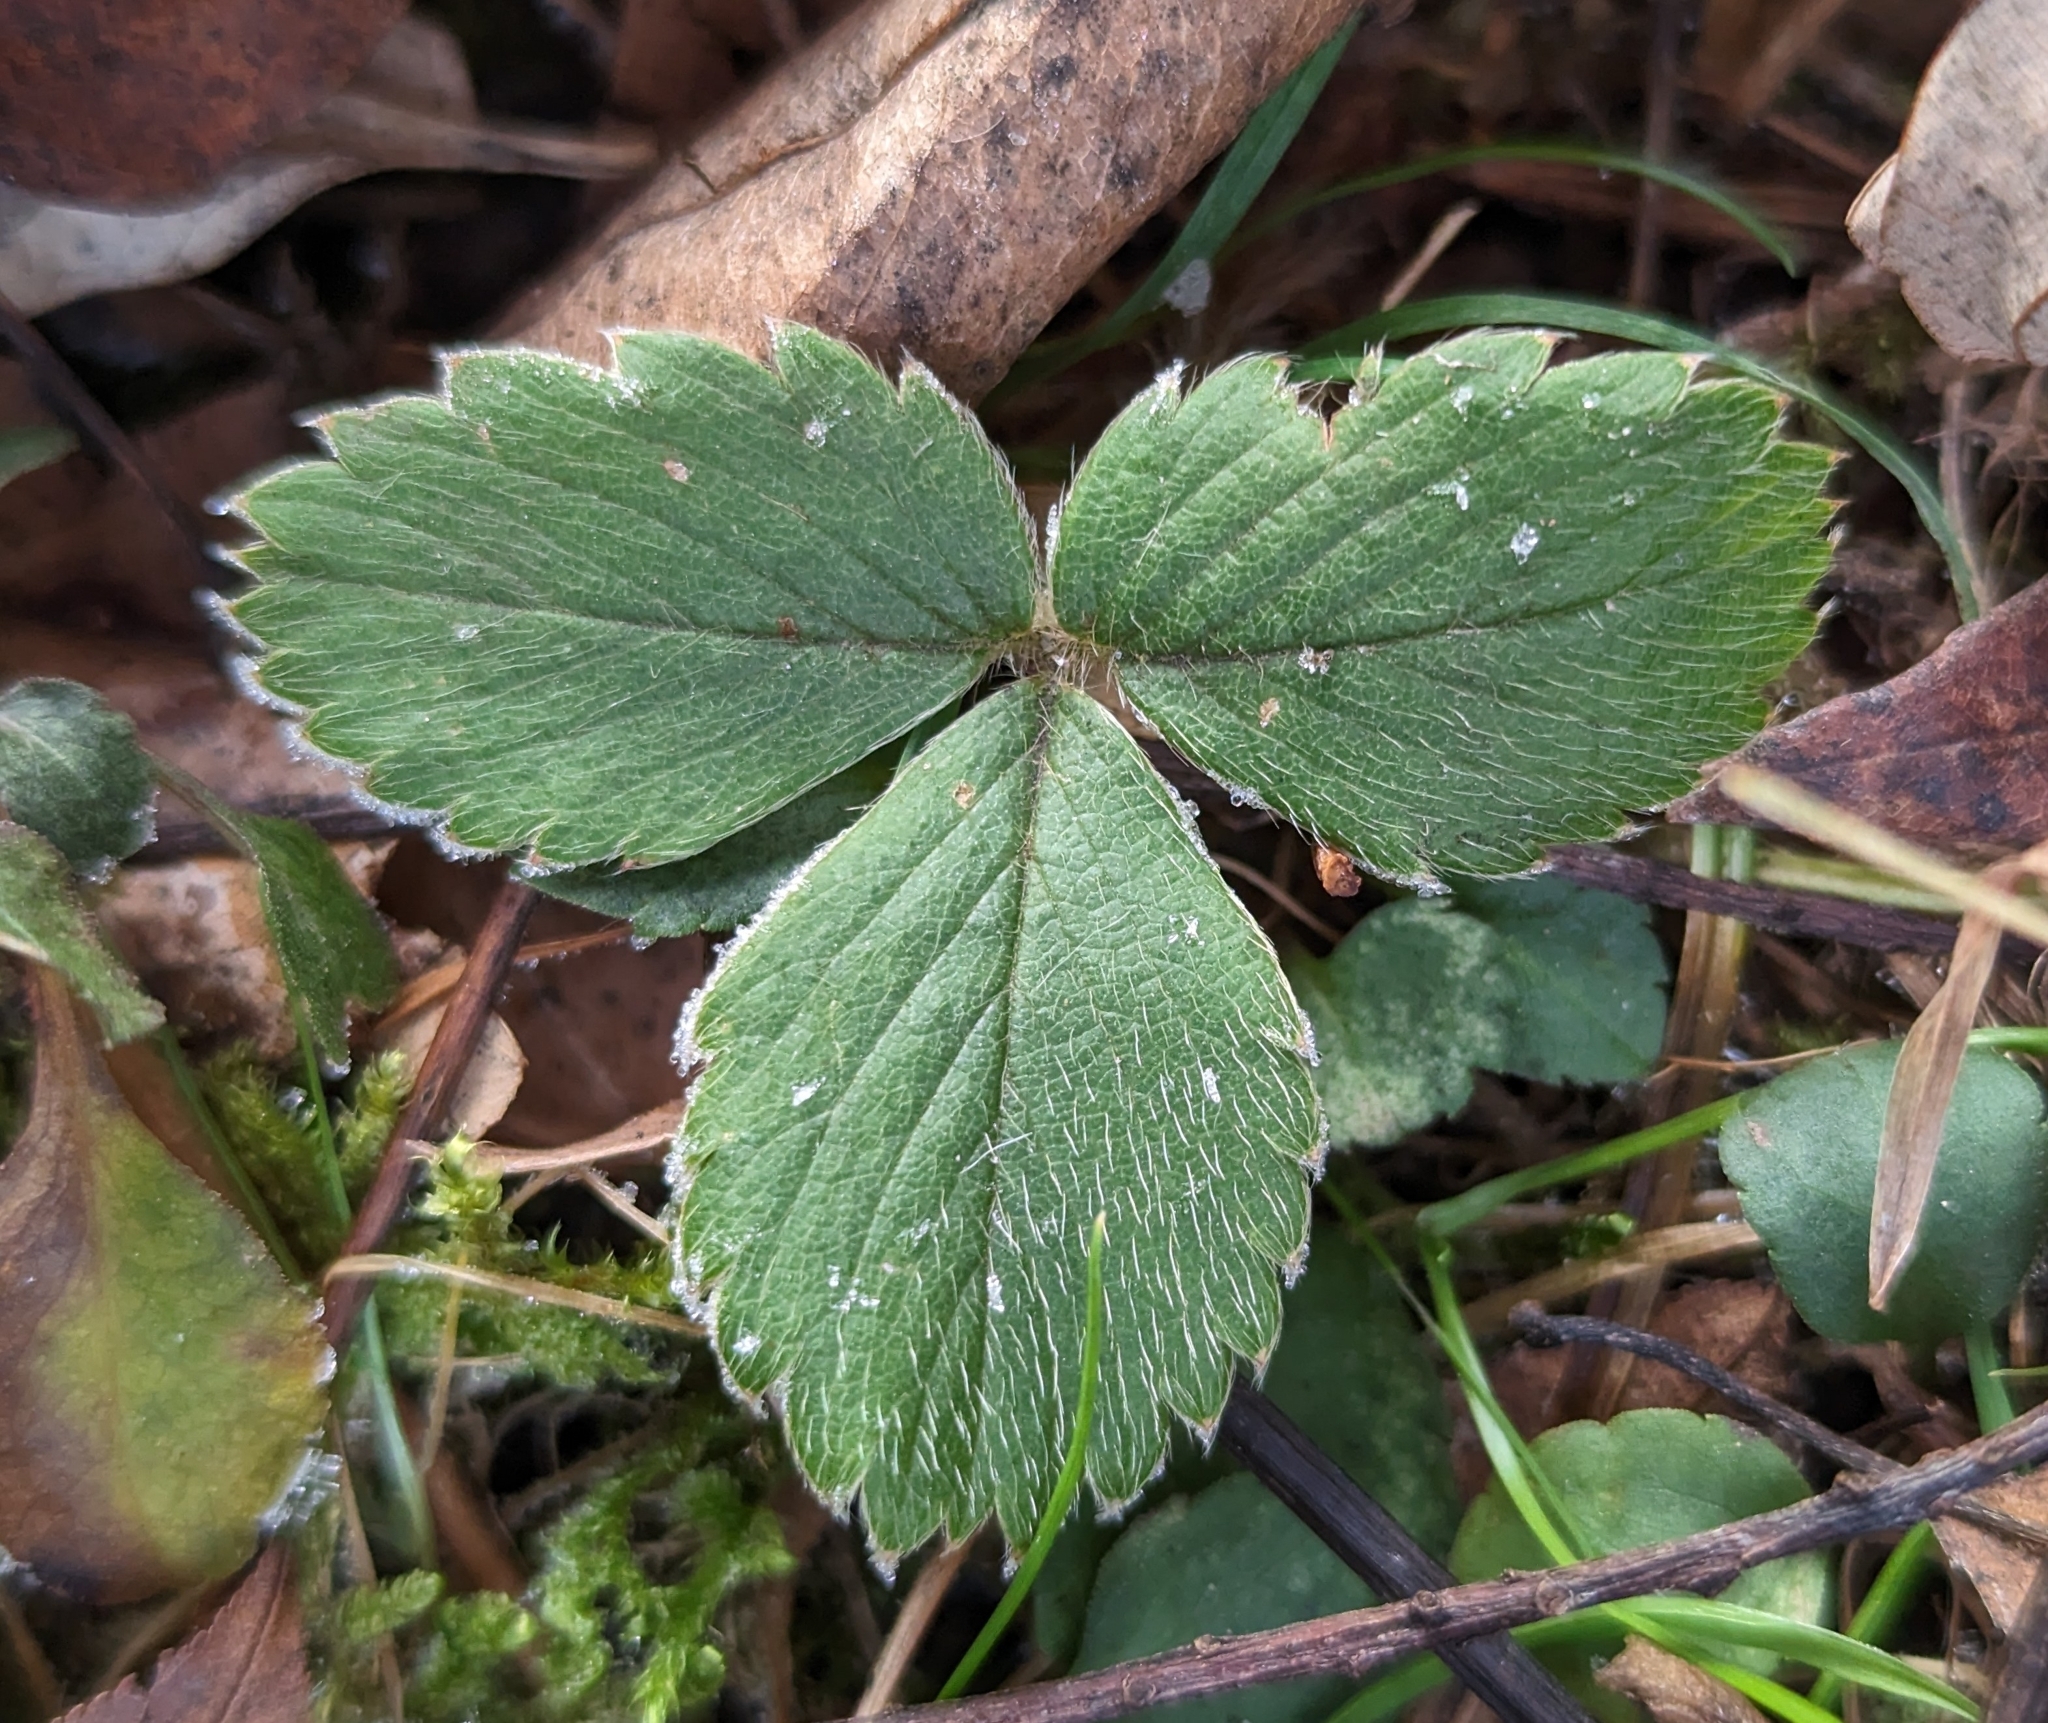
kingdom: Plantae
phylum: Tracheophyta
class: Magnoliopsida
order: Rosales
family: Rosaceae
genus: Fragaria
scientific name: Fragaria virginiana
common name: Thickleaved wild strawberry
